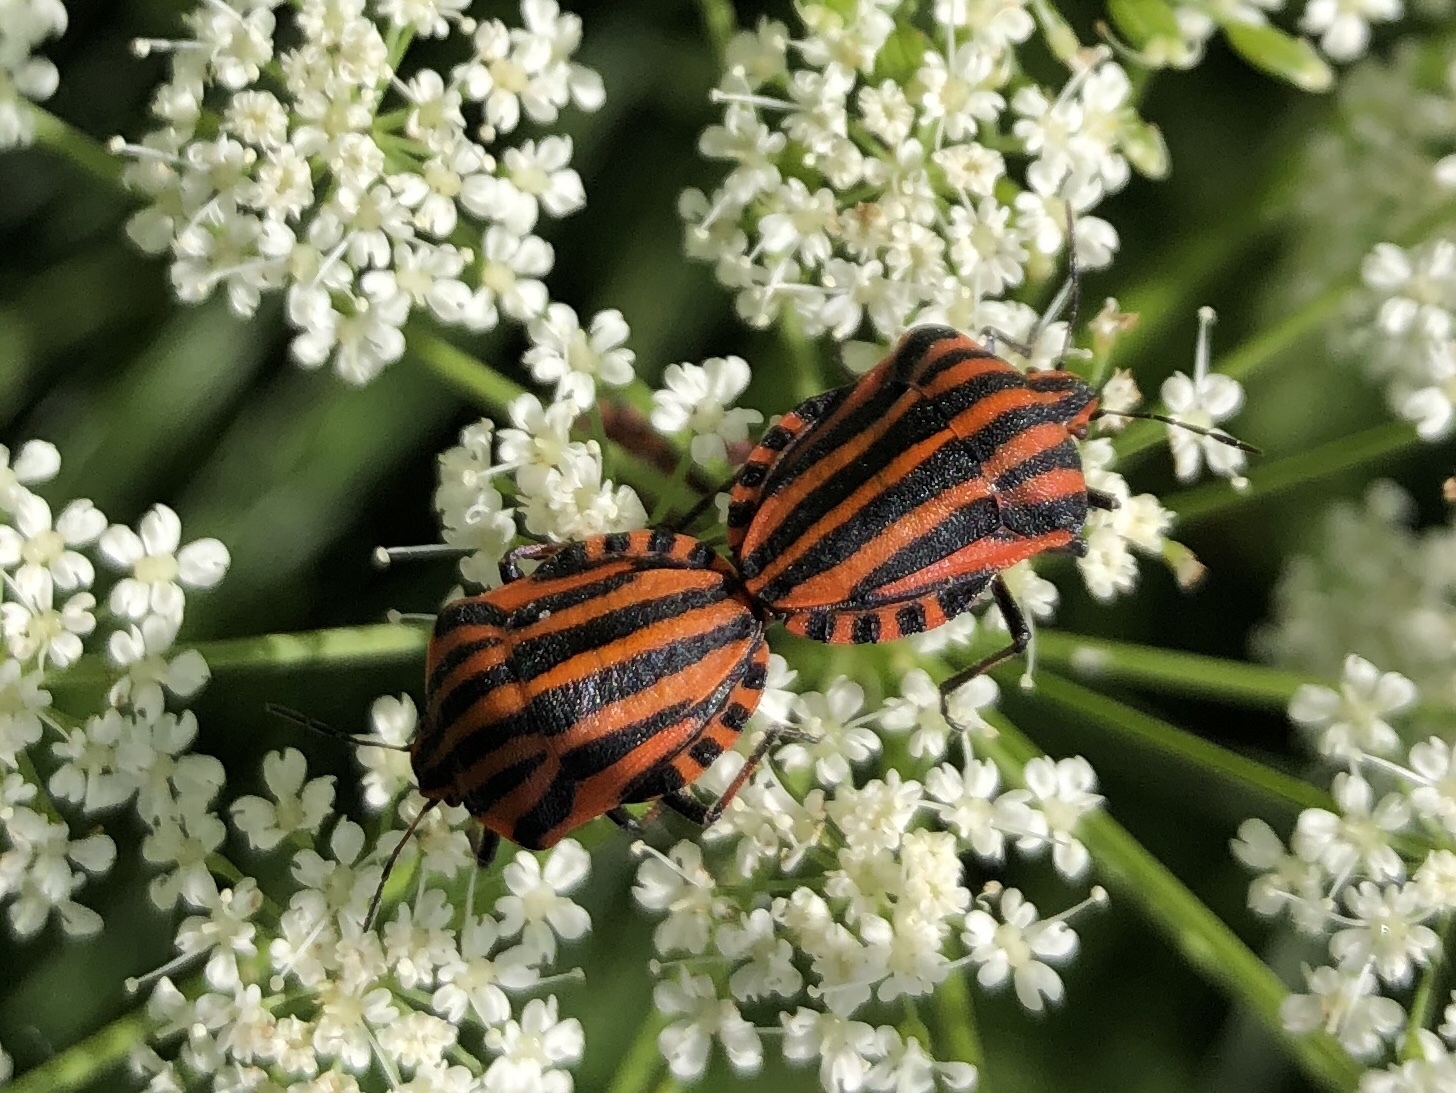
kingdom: Animalia
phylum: Arthropoda
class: Insecta
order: Hemiptera
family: Pentatomidae
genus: Graphosoma
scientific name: Graphosoma italicum
